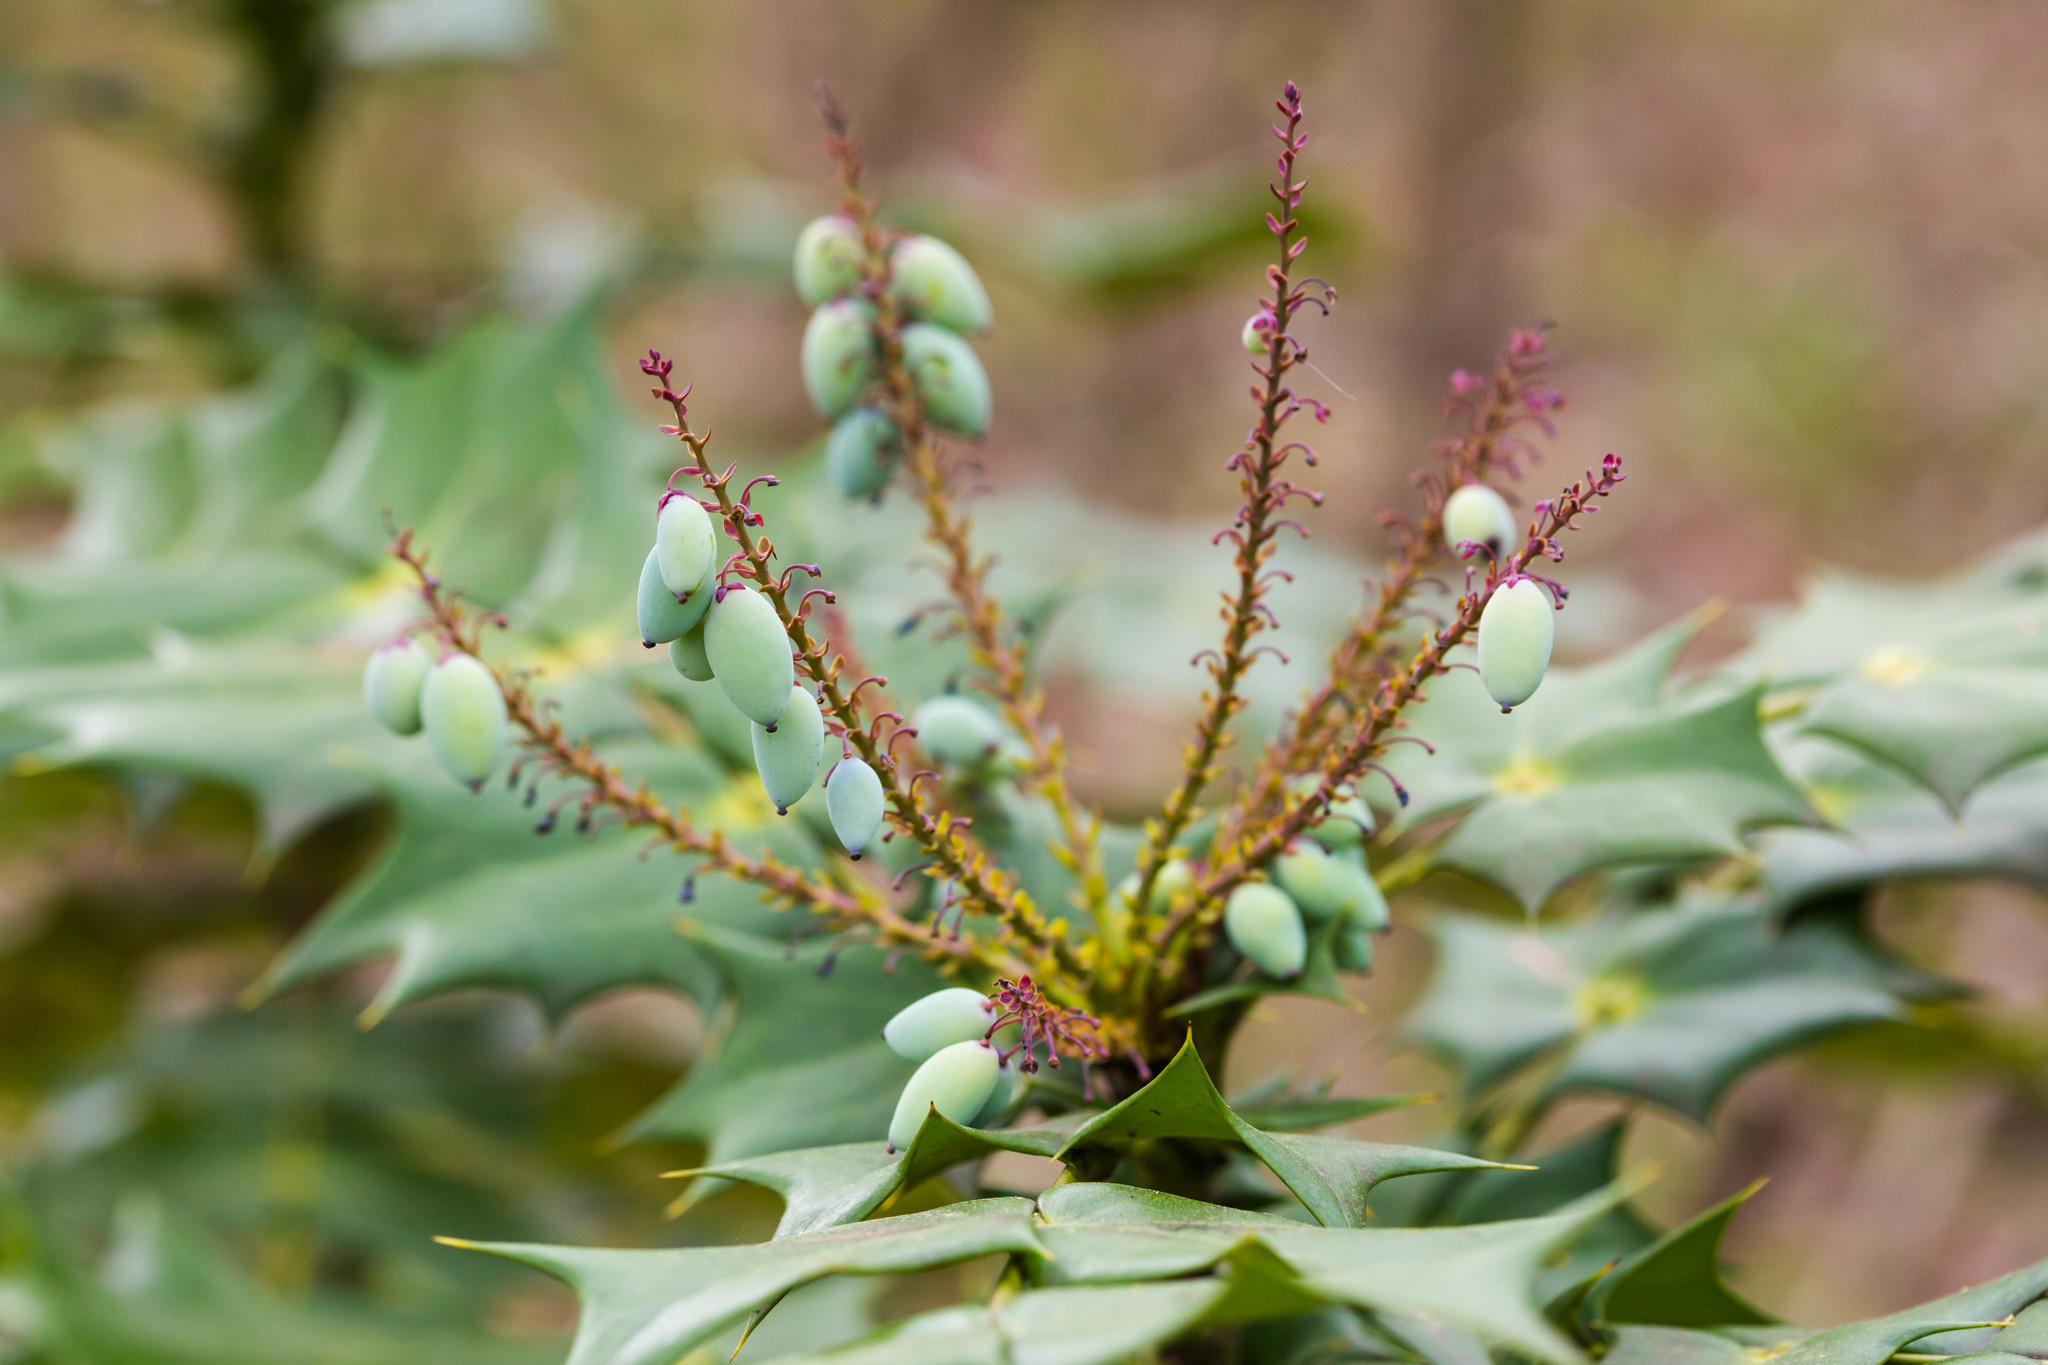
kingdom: Plantae
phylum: Tracheophyta
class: Magnoliopsida
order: Ranunculales
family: Berberidaceae
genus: Mahonia
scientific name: Mahonia bealei
